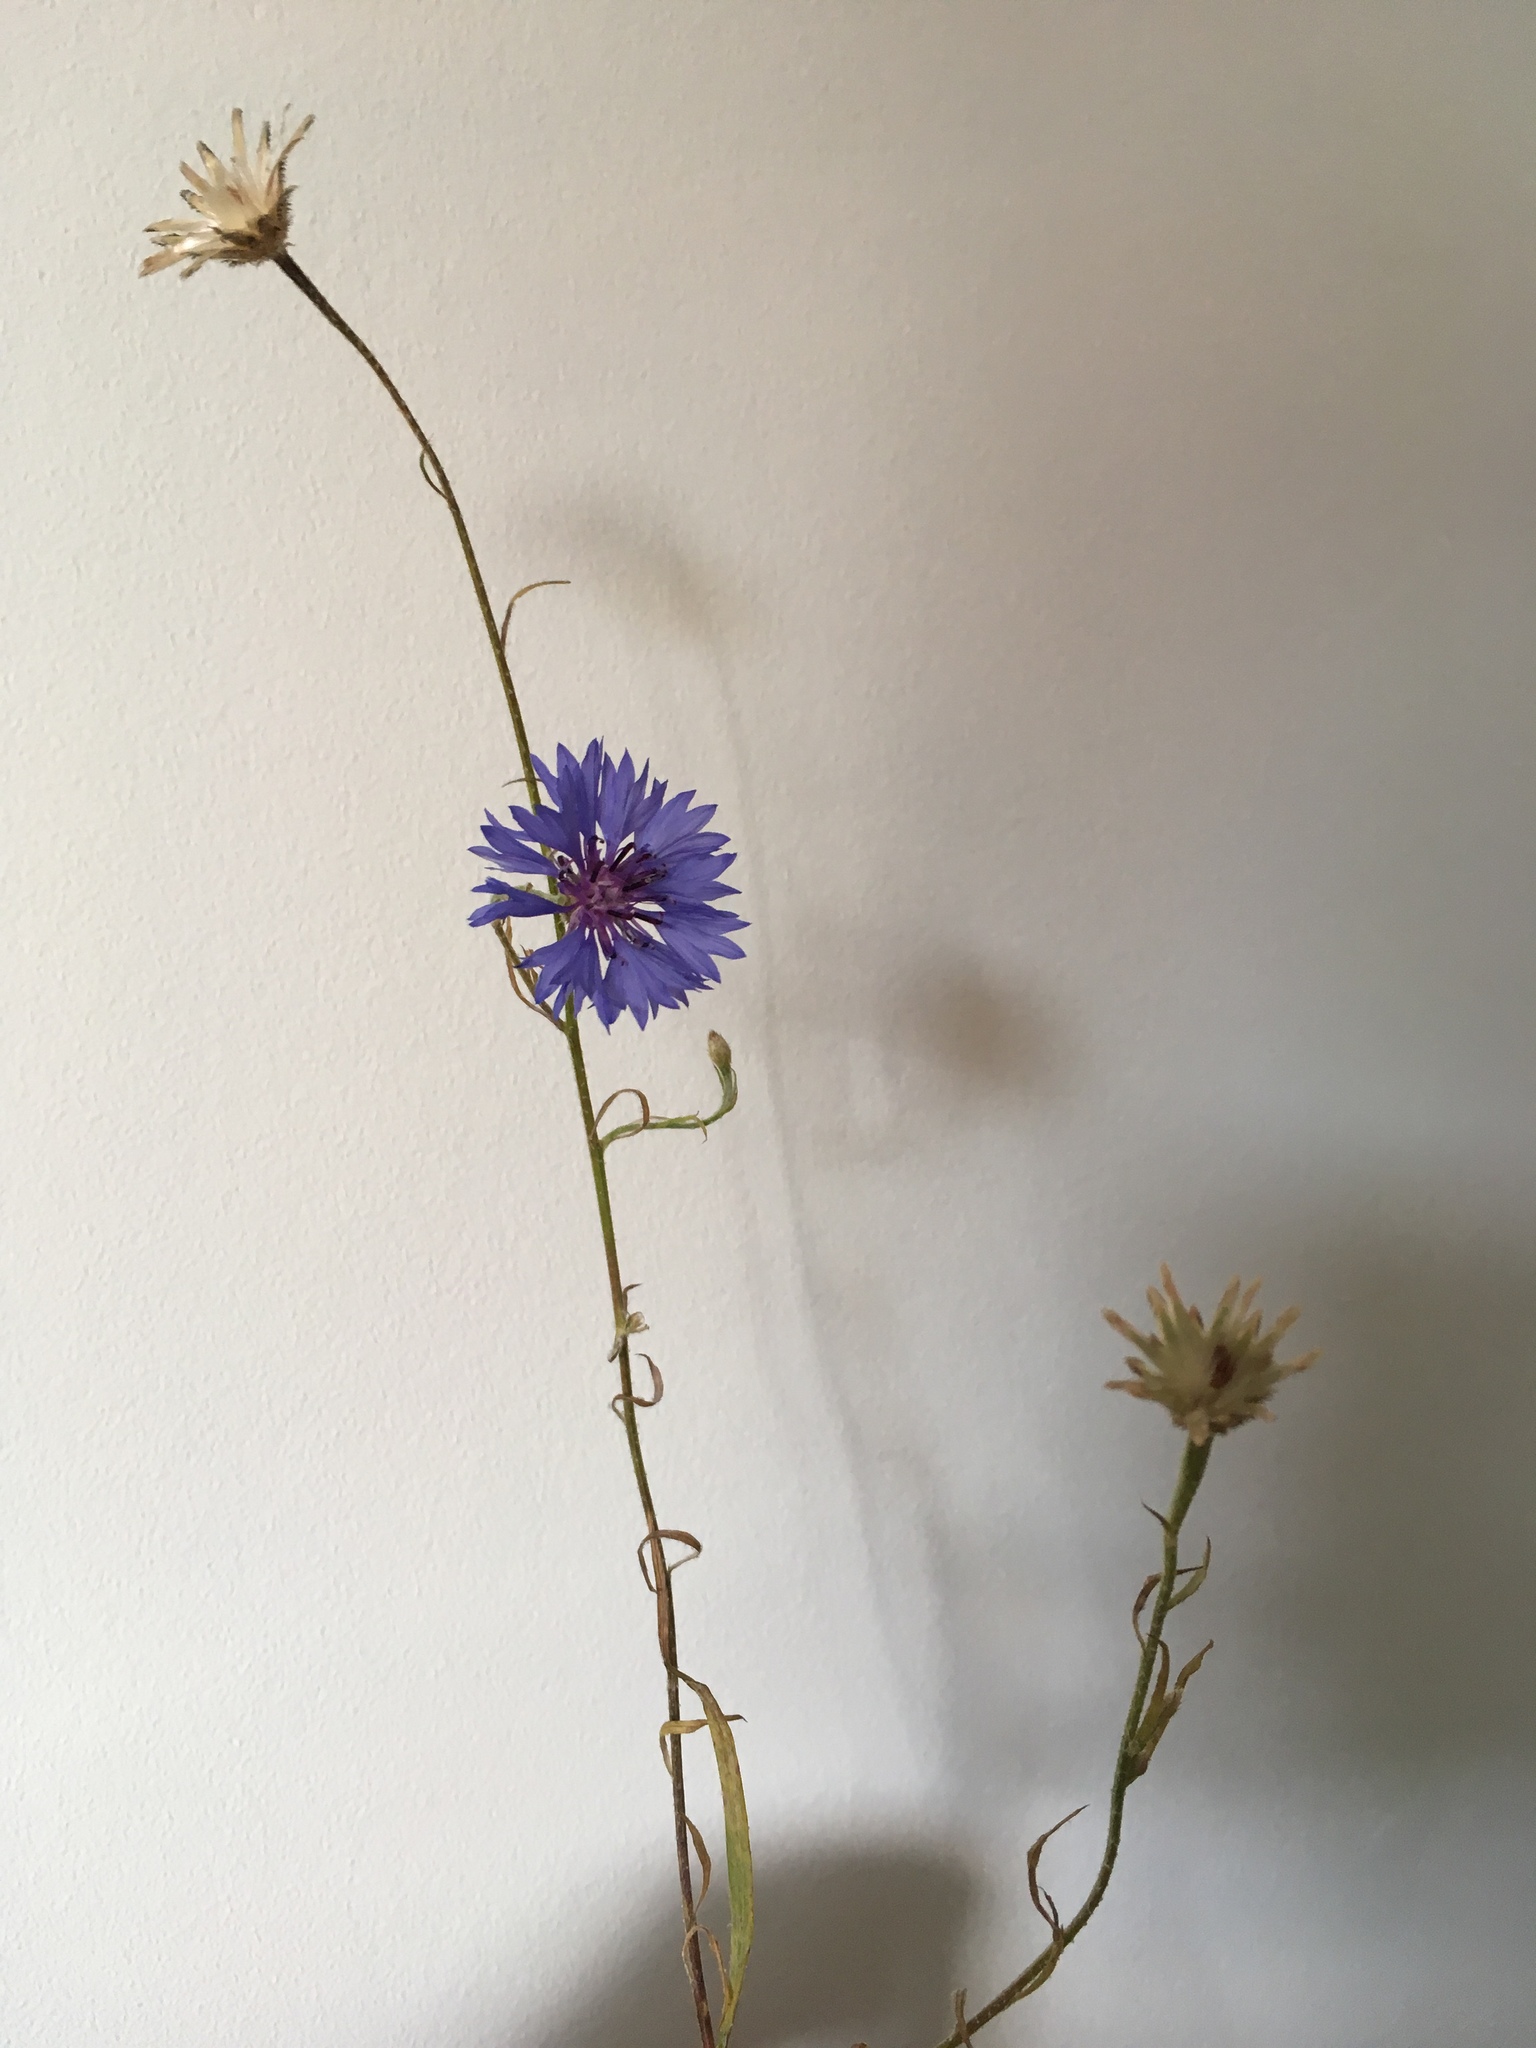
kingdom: Plantae
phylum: Tracheophyta
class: Magnoliopsida
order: Asterales
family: Asteraceae
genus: Centaurea
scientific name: Centaurea cyanus
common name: Cornflower
